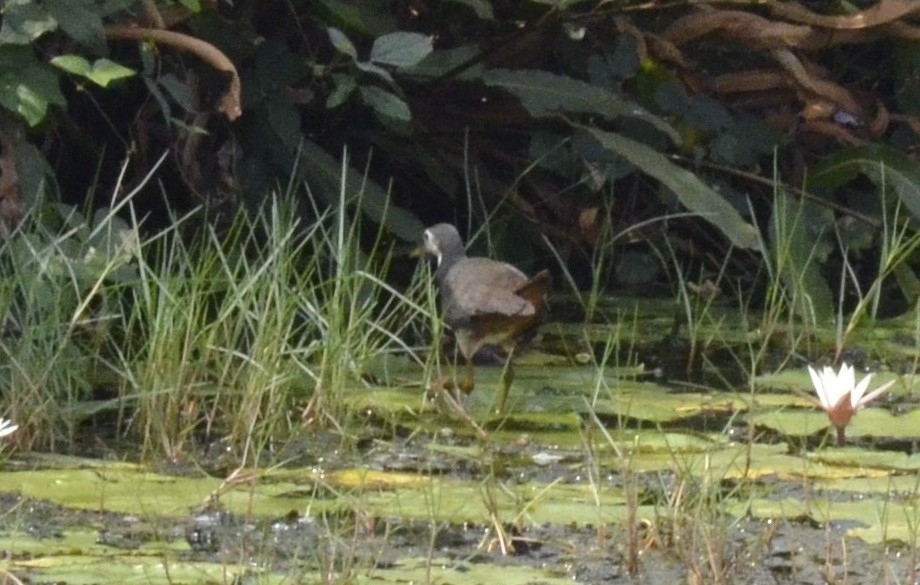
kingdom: Animalia
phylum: Chordata
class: Aves
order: Gruiformes
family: Rallidae
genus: Amaurornis
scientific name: Amaurornis phoenicurus
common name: White-breasted waterhen
